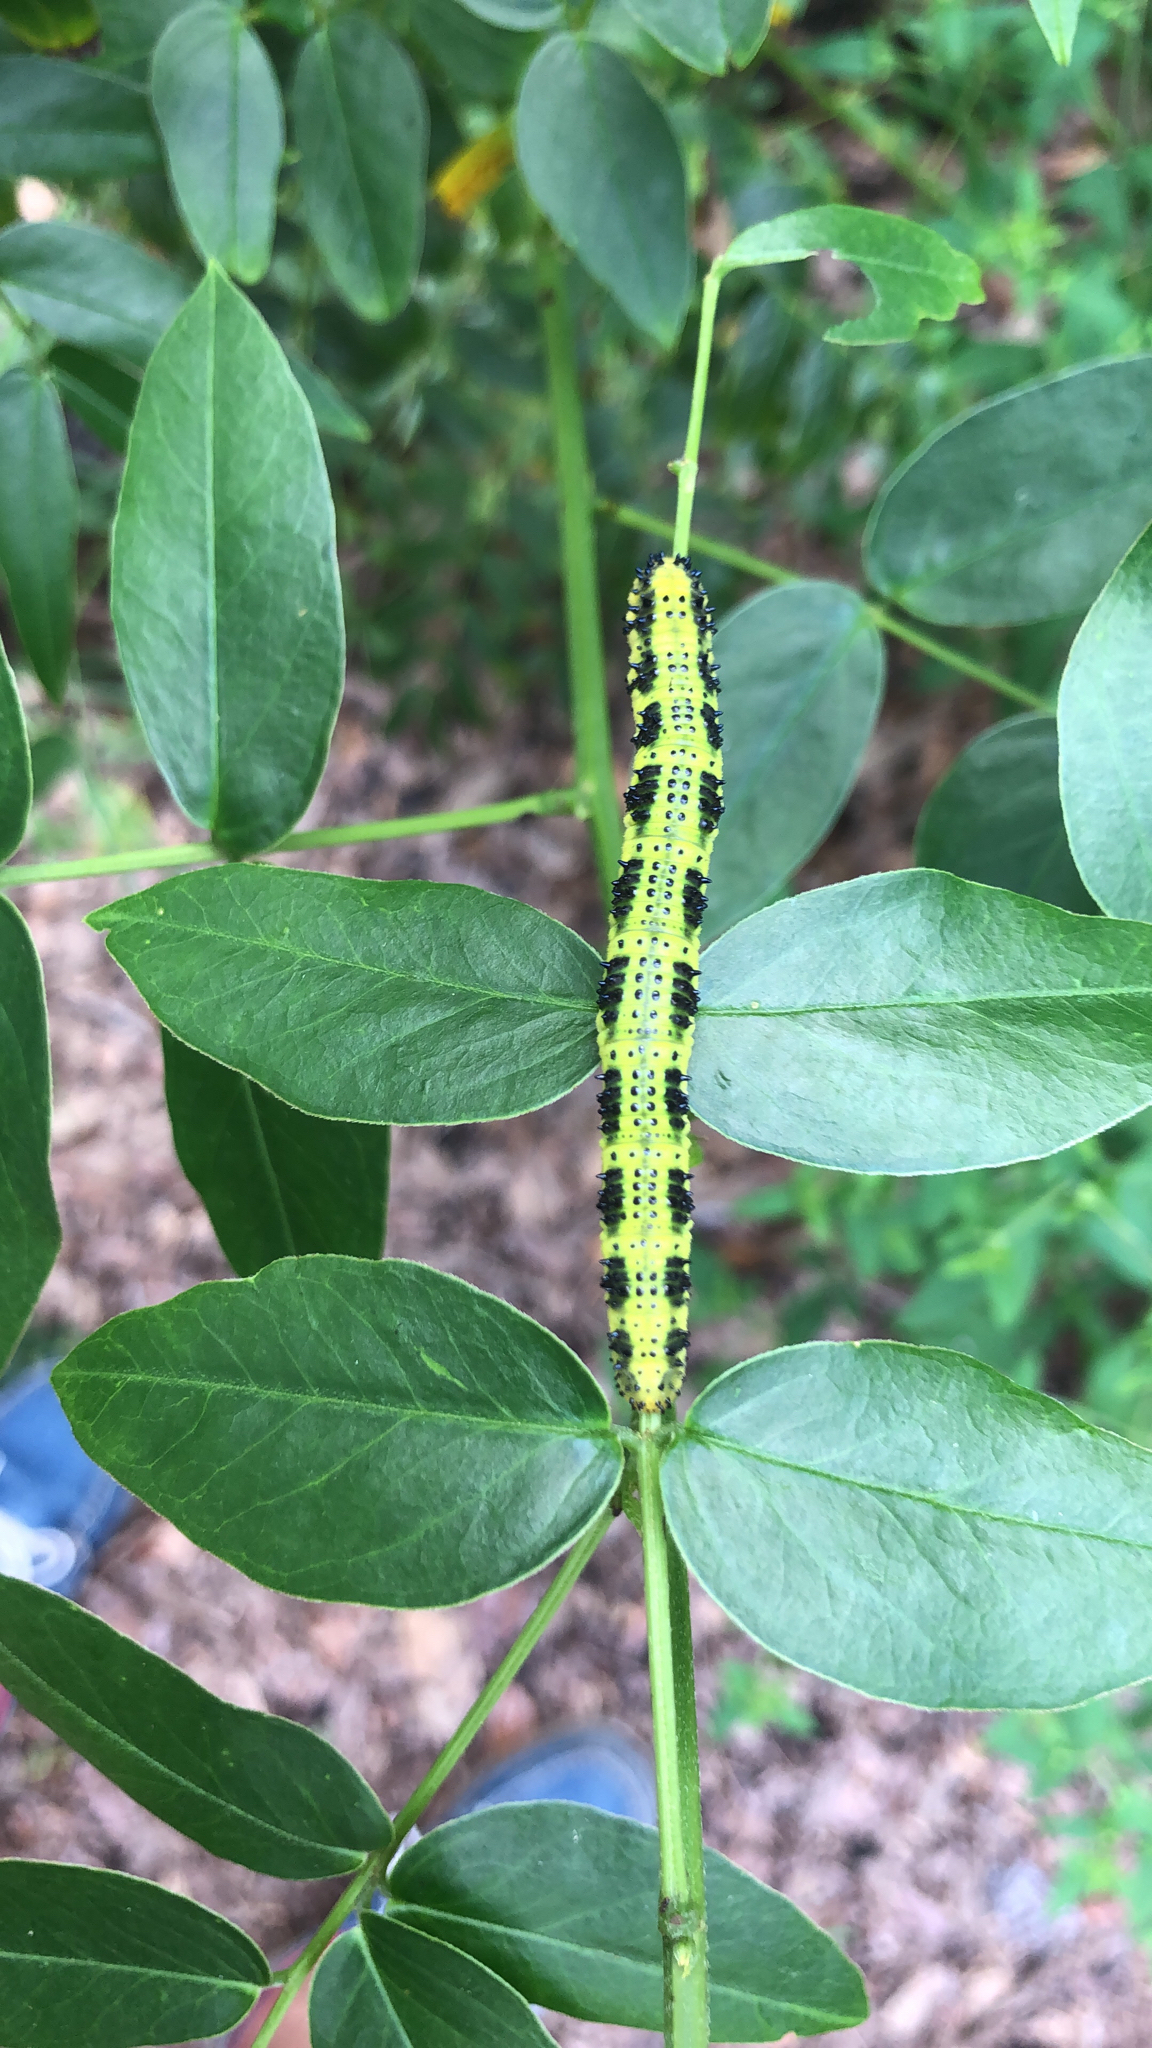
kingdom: Animalia
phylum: Arthropoda
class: Insecta
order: Lepidoptera
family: Pieridae
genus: Phoebis
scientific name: Phoebis philea
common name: Orange-barred giant sulphur
